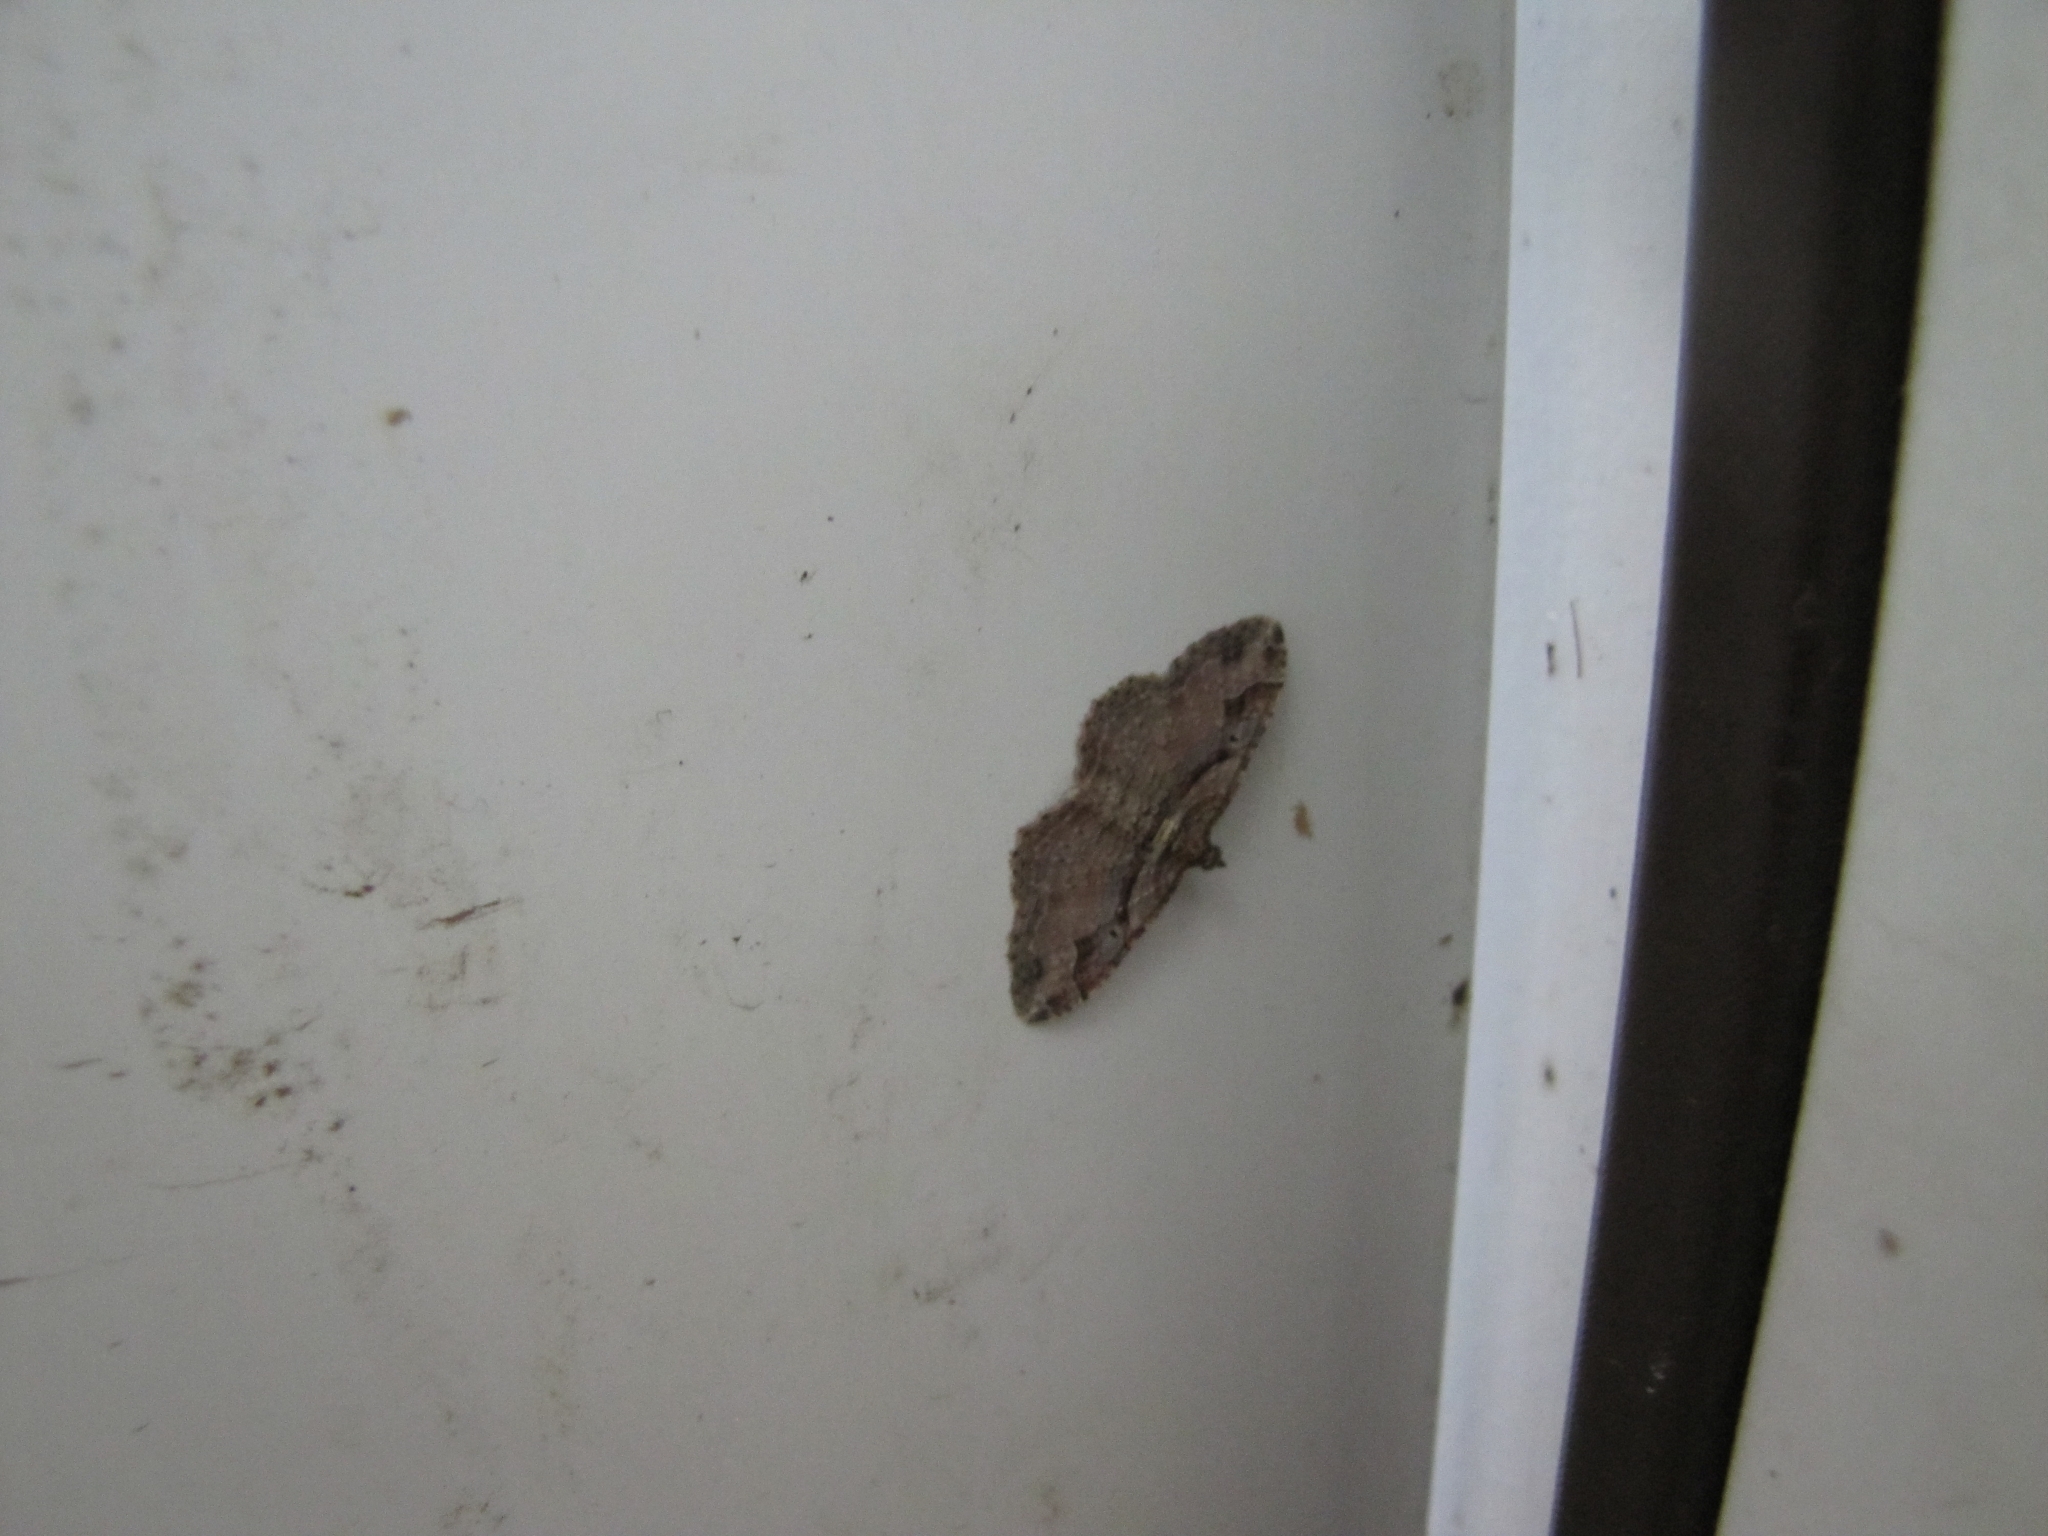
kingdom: Animalia
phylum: Arthropoda
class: Insecta
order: Lepidoptera
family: Geometridae
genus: Costaconvexa
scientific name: Costaconvexa centrostrigaria
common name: Bent-line carpet
